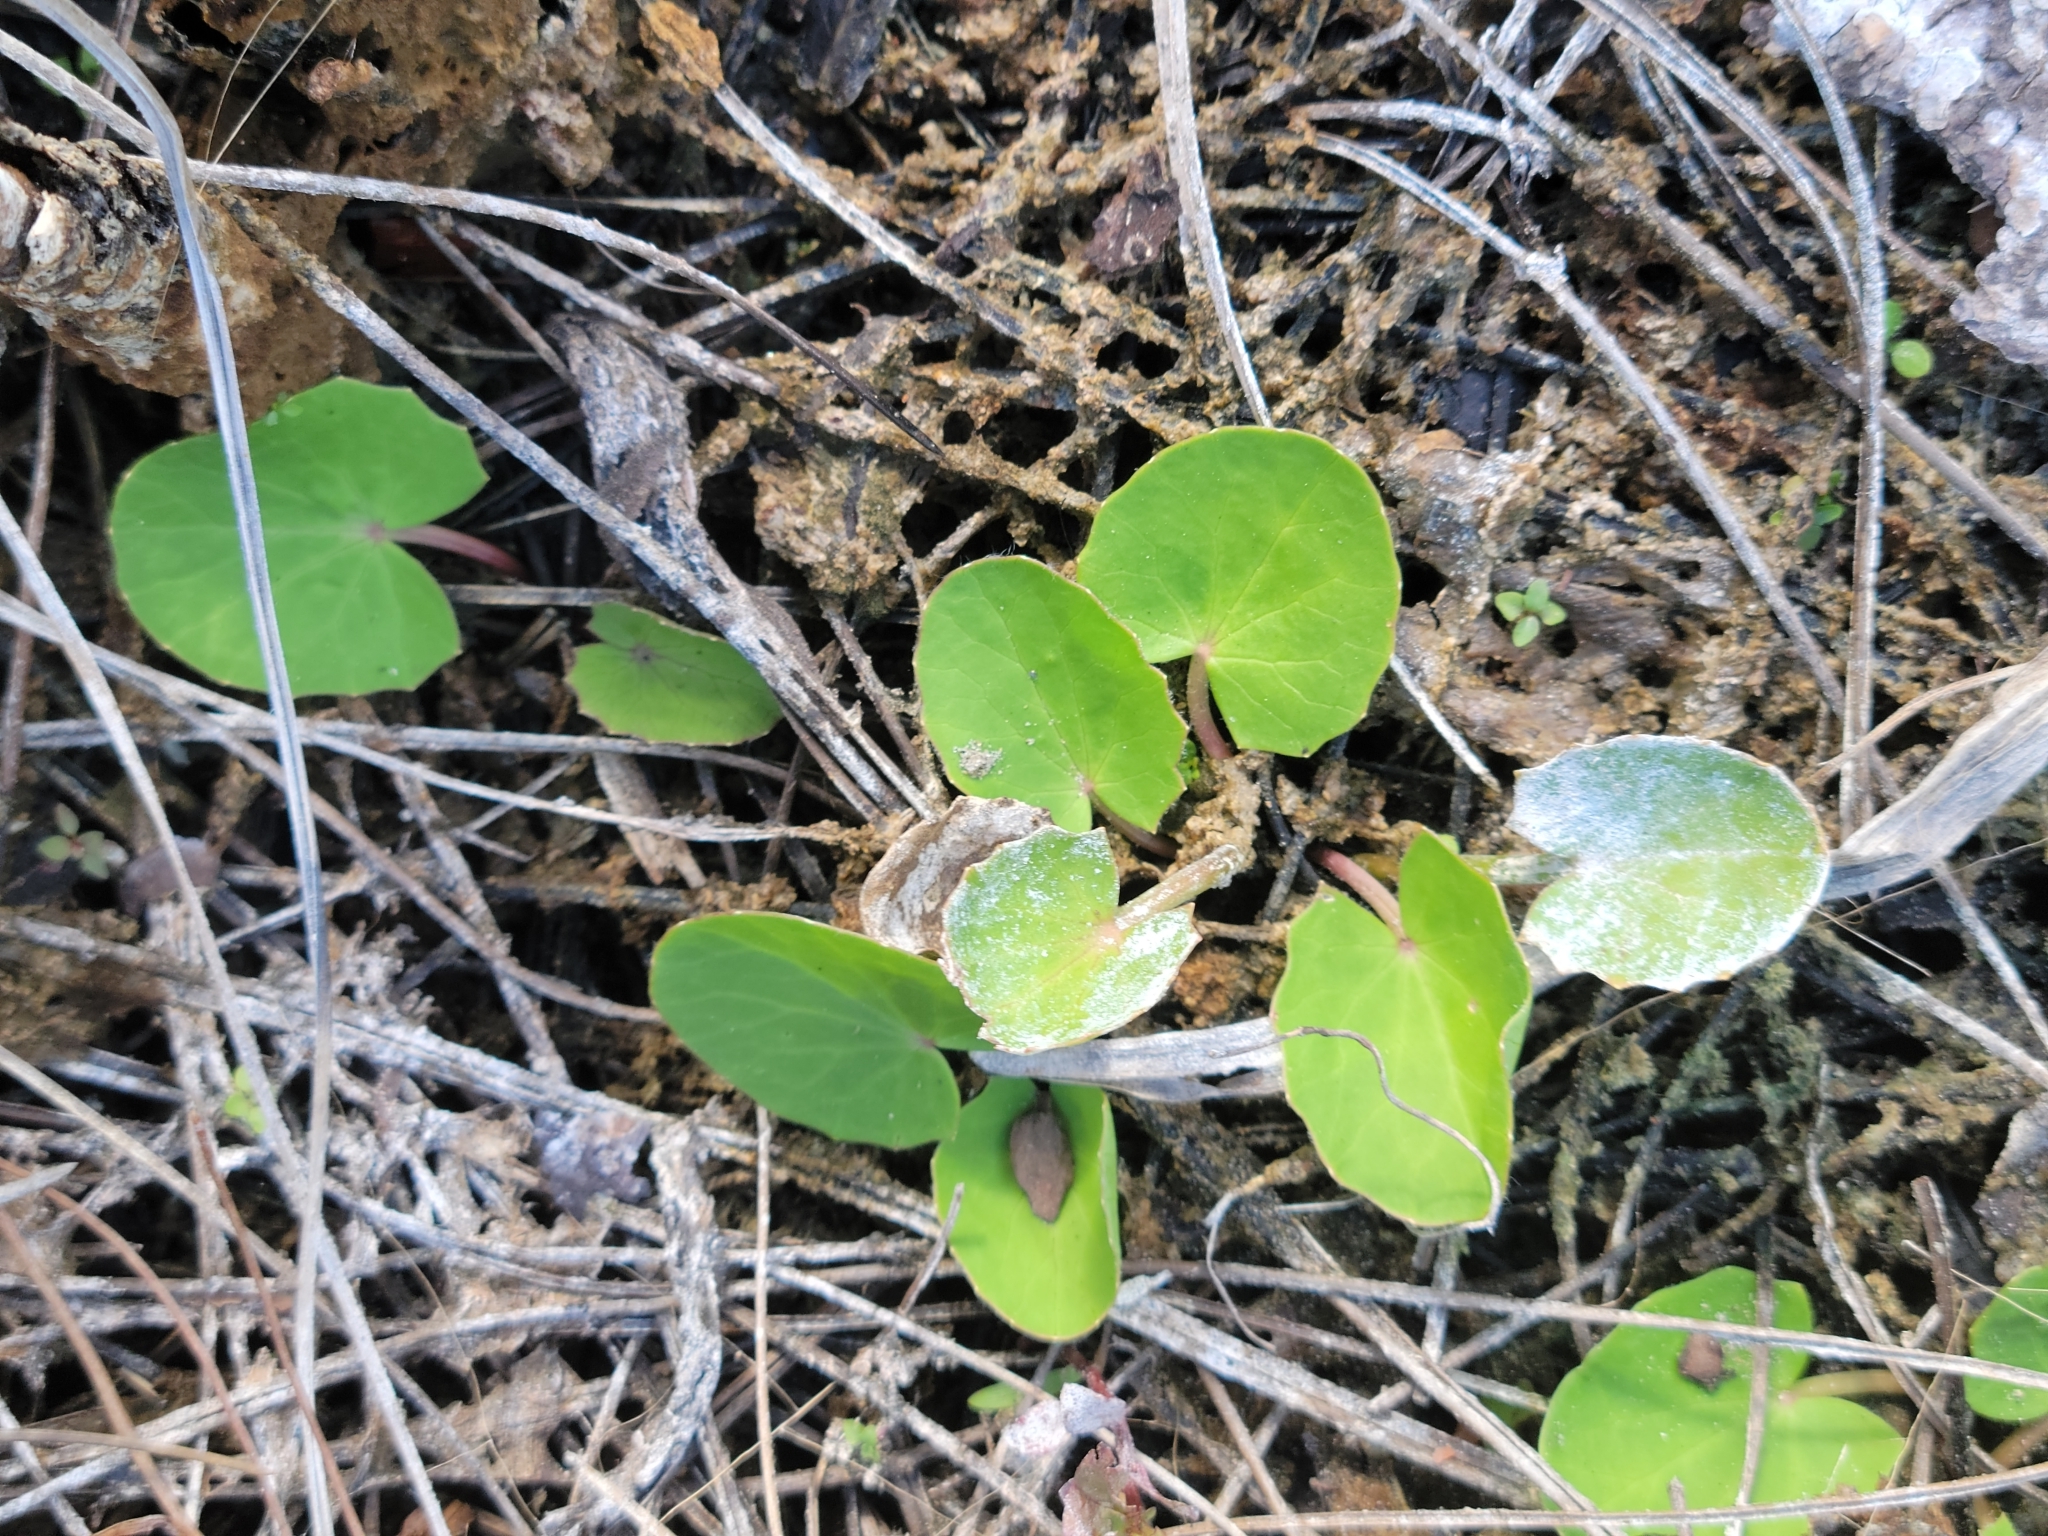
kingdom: Plantae
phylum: Tracheophyta
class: Magnoliopsida
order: Apiales
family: Apiaceae
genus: Centella
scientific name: Centella erecta
